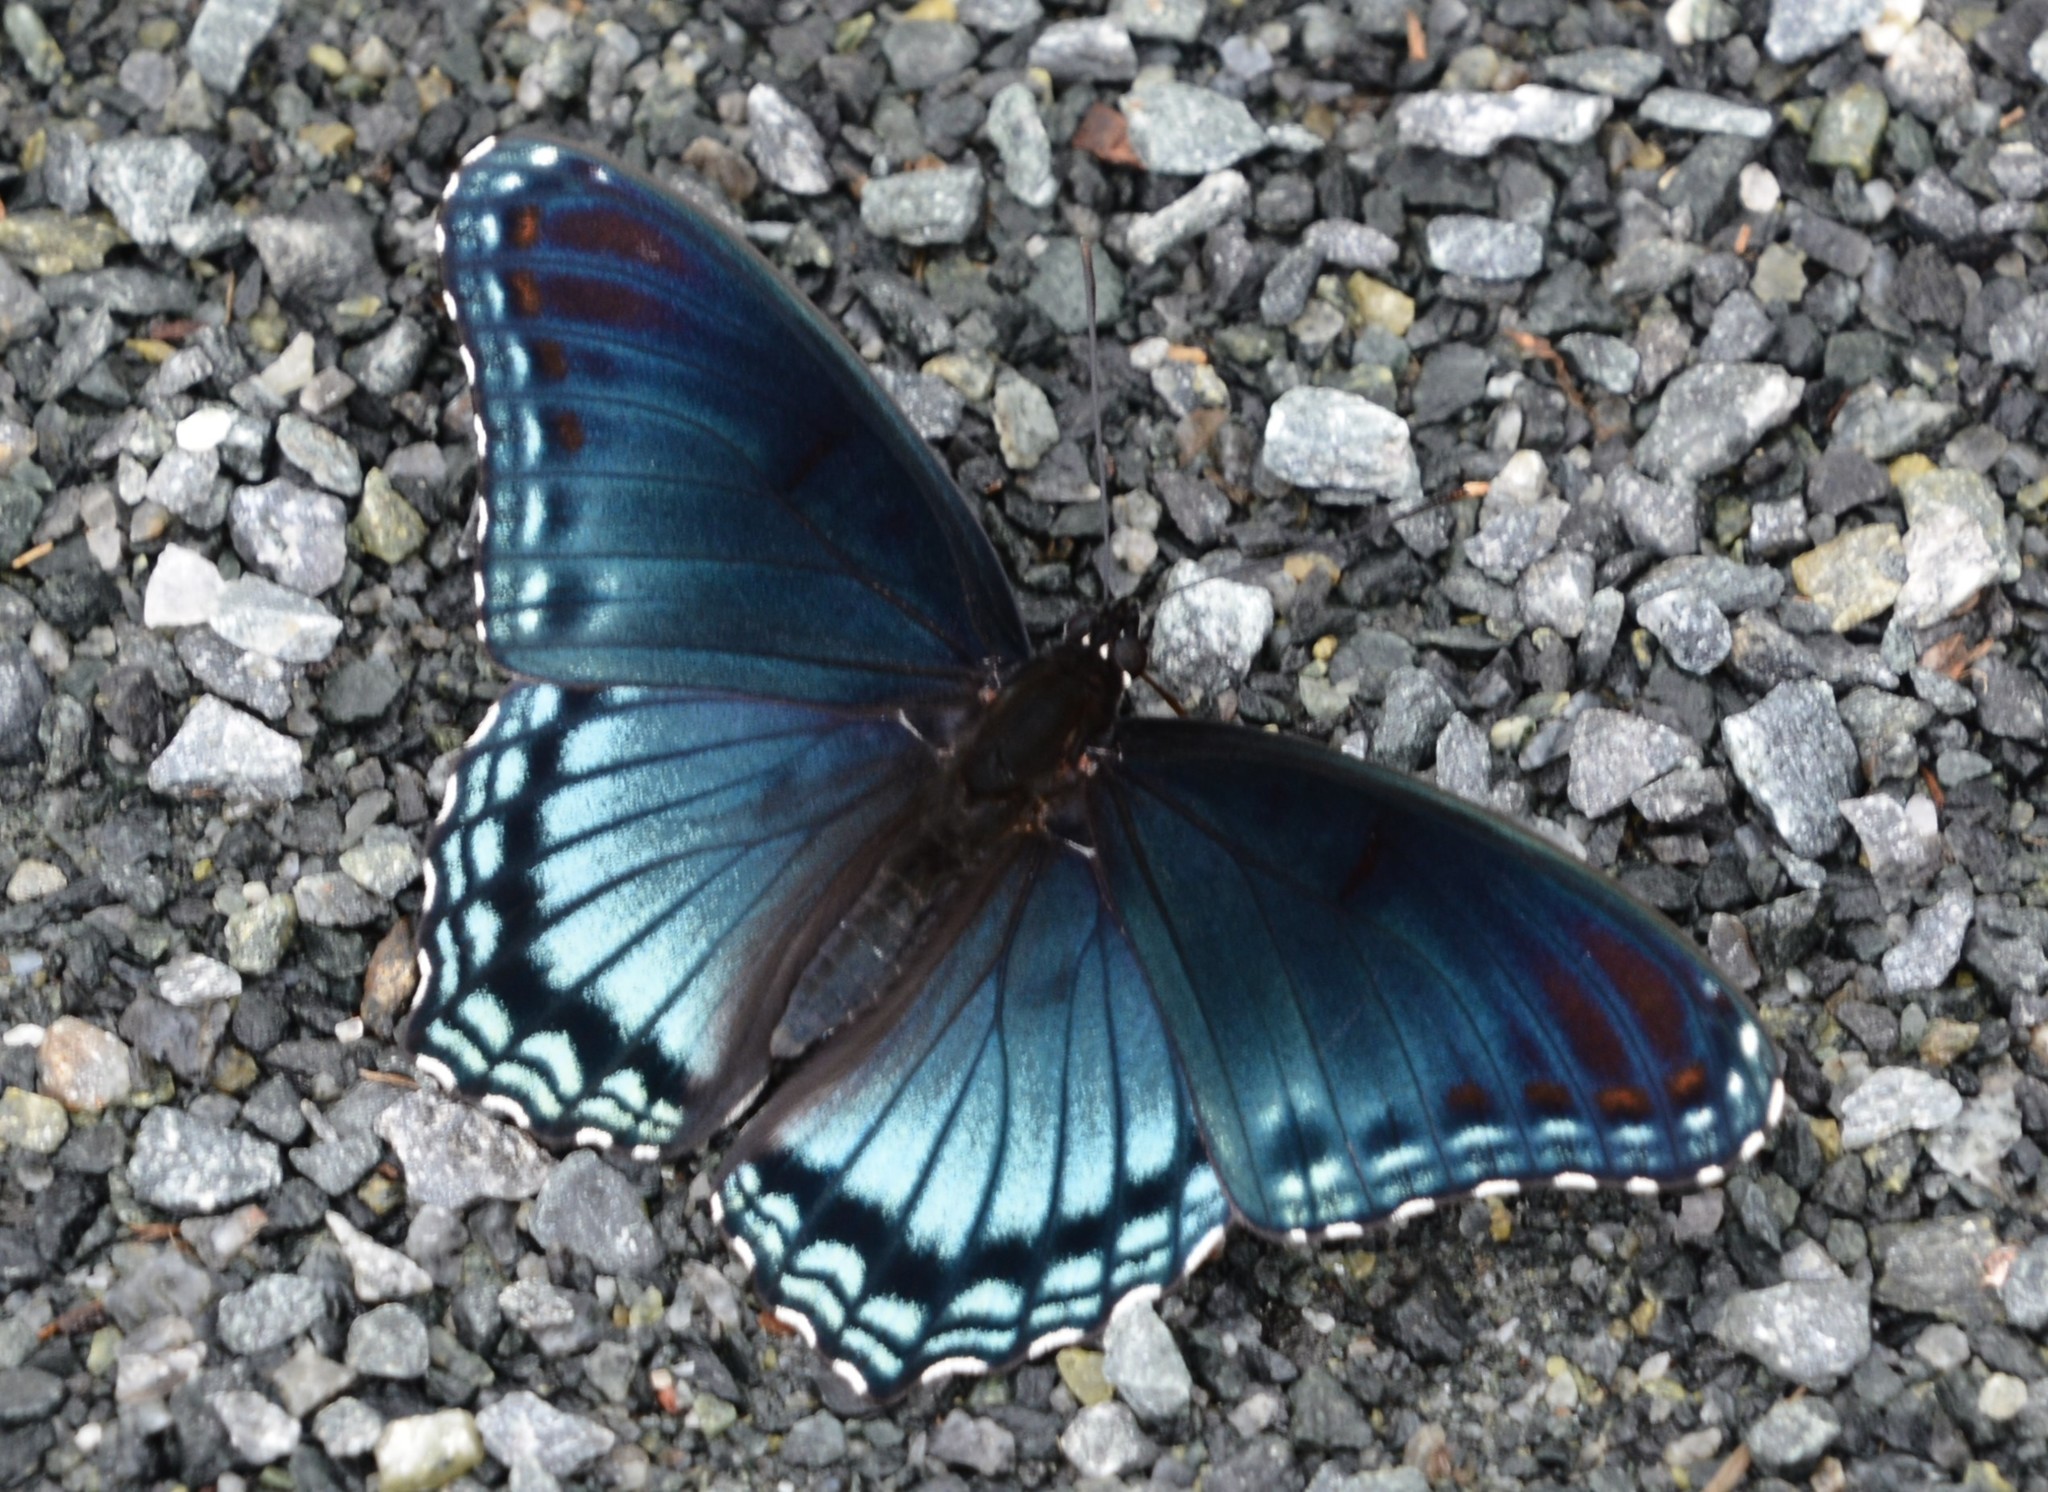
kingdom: Animalia
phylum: Arthropoda
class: Insecta
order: Lepidoptera
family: Nymphalidae
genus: Limenitis
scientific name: Limenitis astyanax
